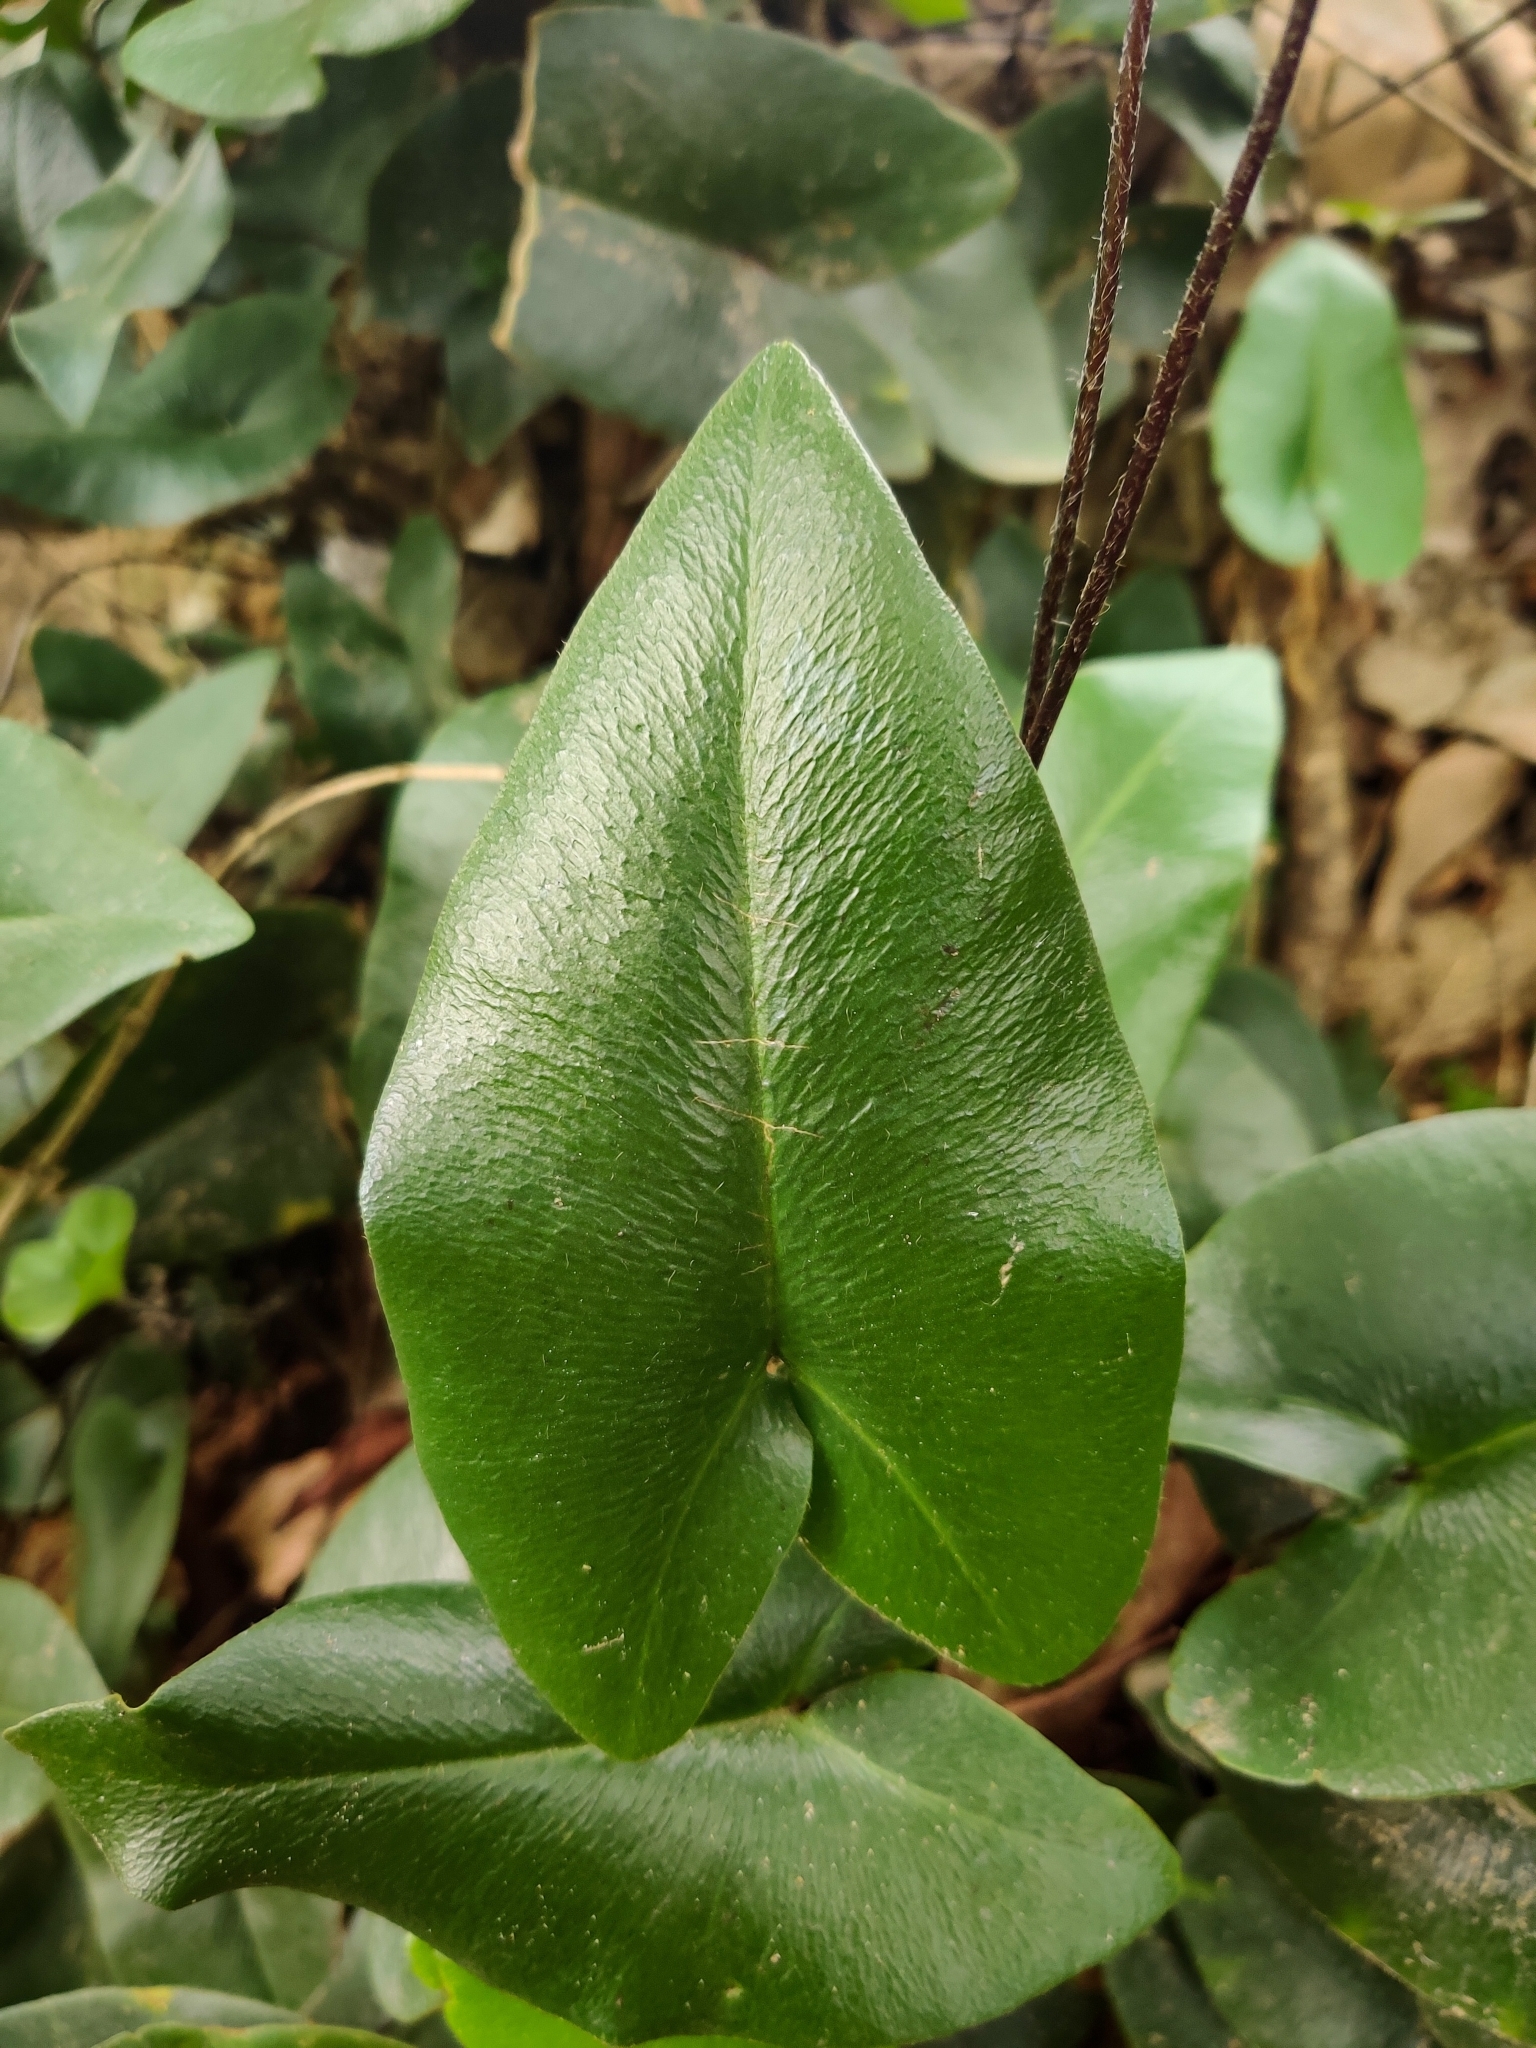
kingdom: Plantae
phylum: Tracheophyta
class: Polypodiopsida
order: Polypodiales
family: Pteridaceae
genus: Mickelopteris
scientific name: Mickelopteris cordata
